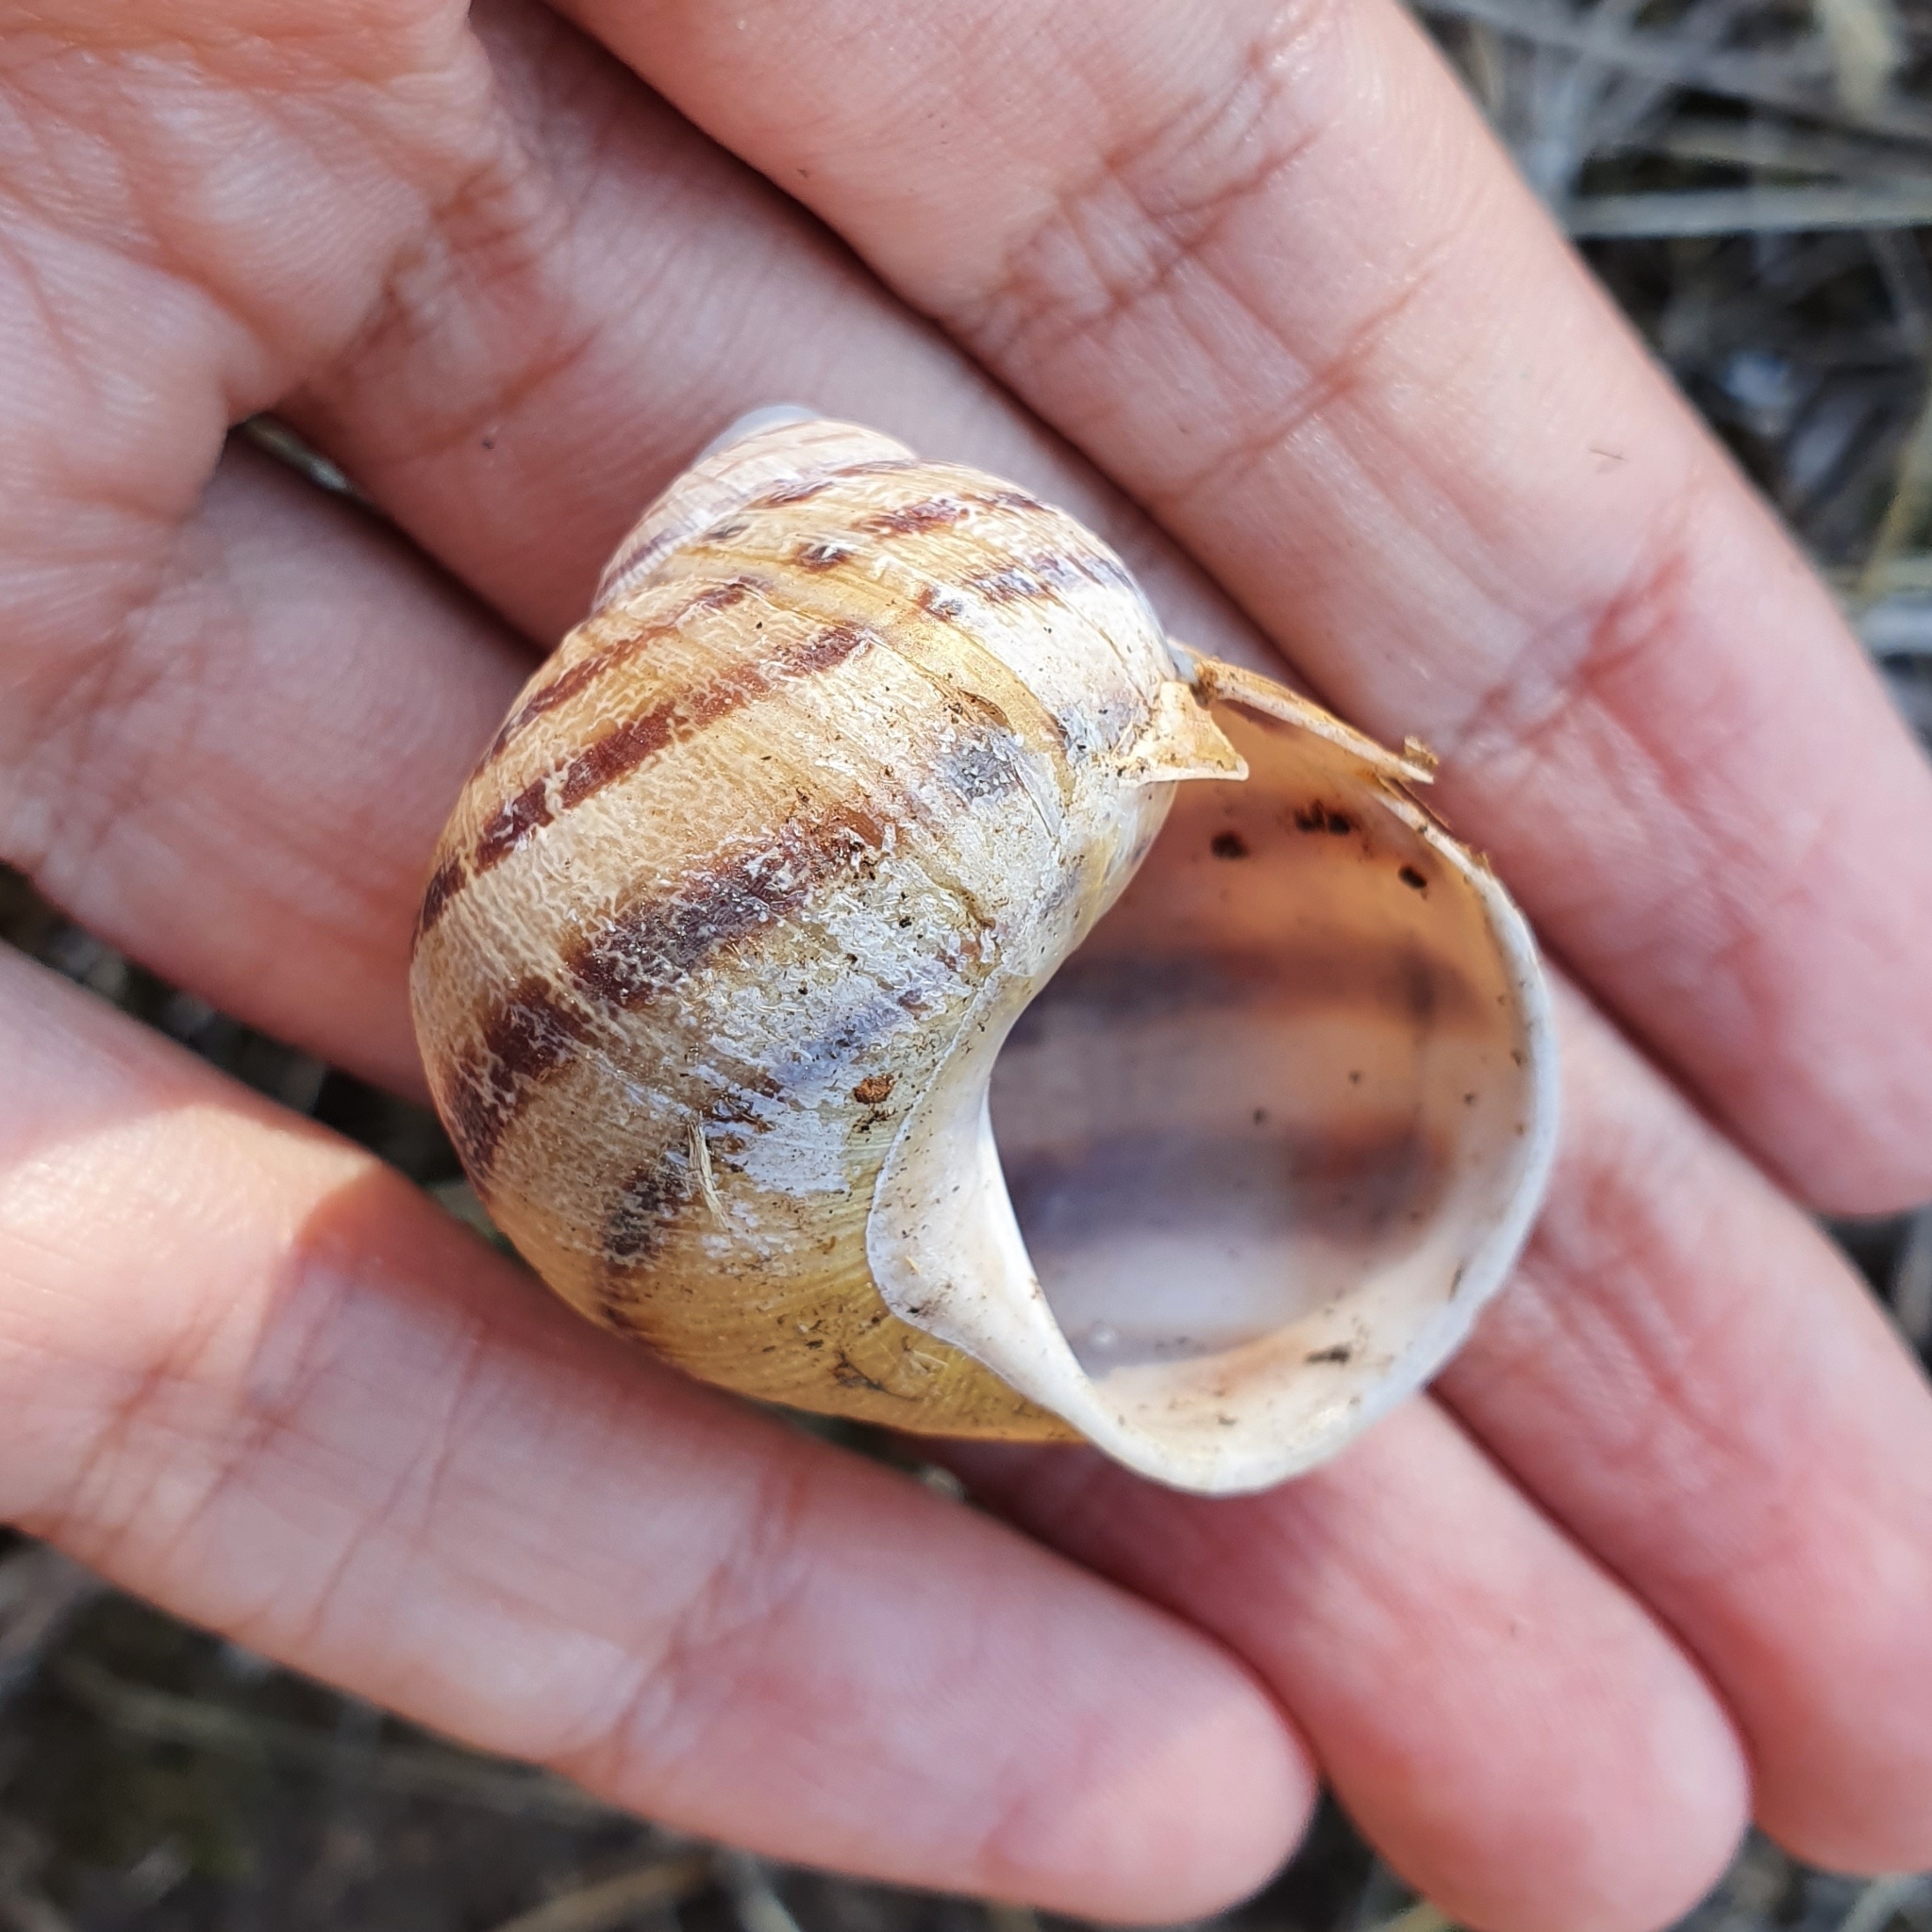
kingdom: Animalia
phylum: Mollusca
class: Gastropoda
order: Stylommatophora
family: Helicidae
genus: Cornu
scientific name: Cornu aspersum
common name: Brown garden snail
